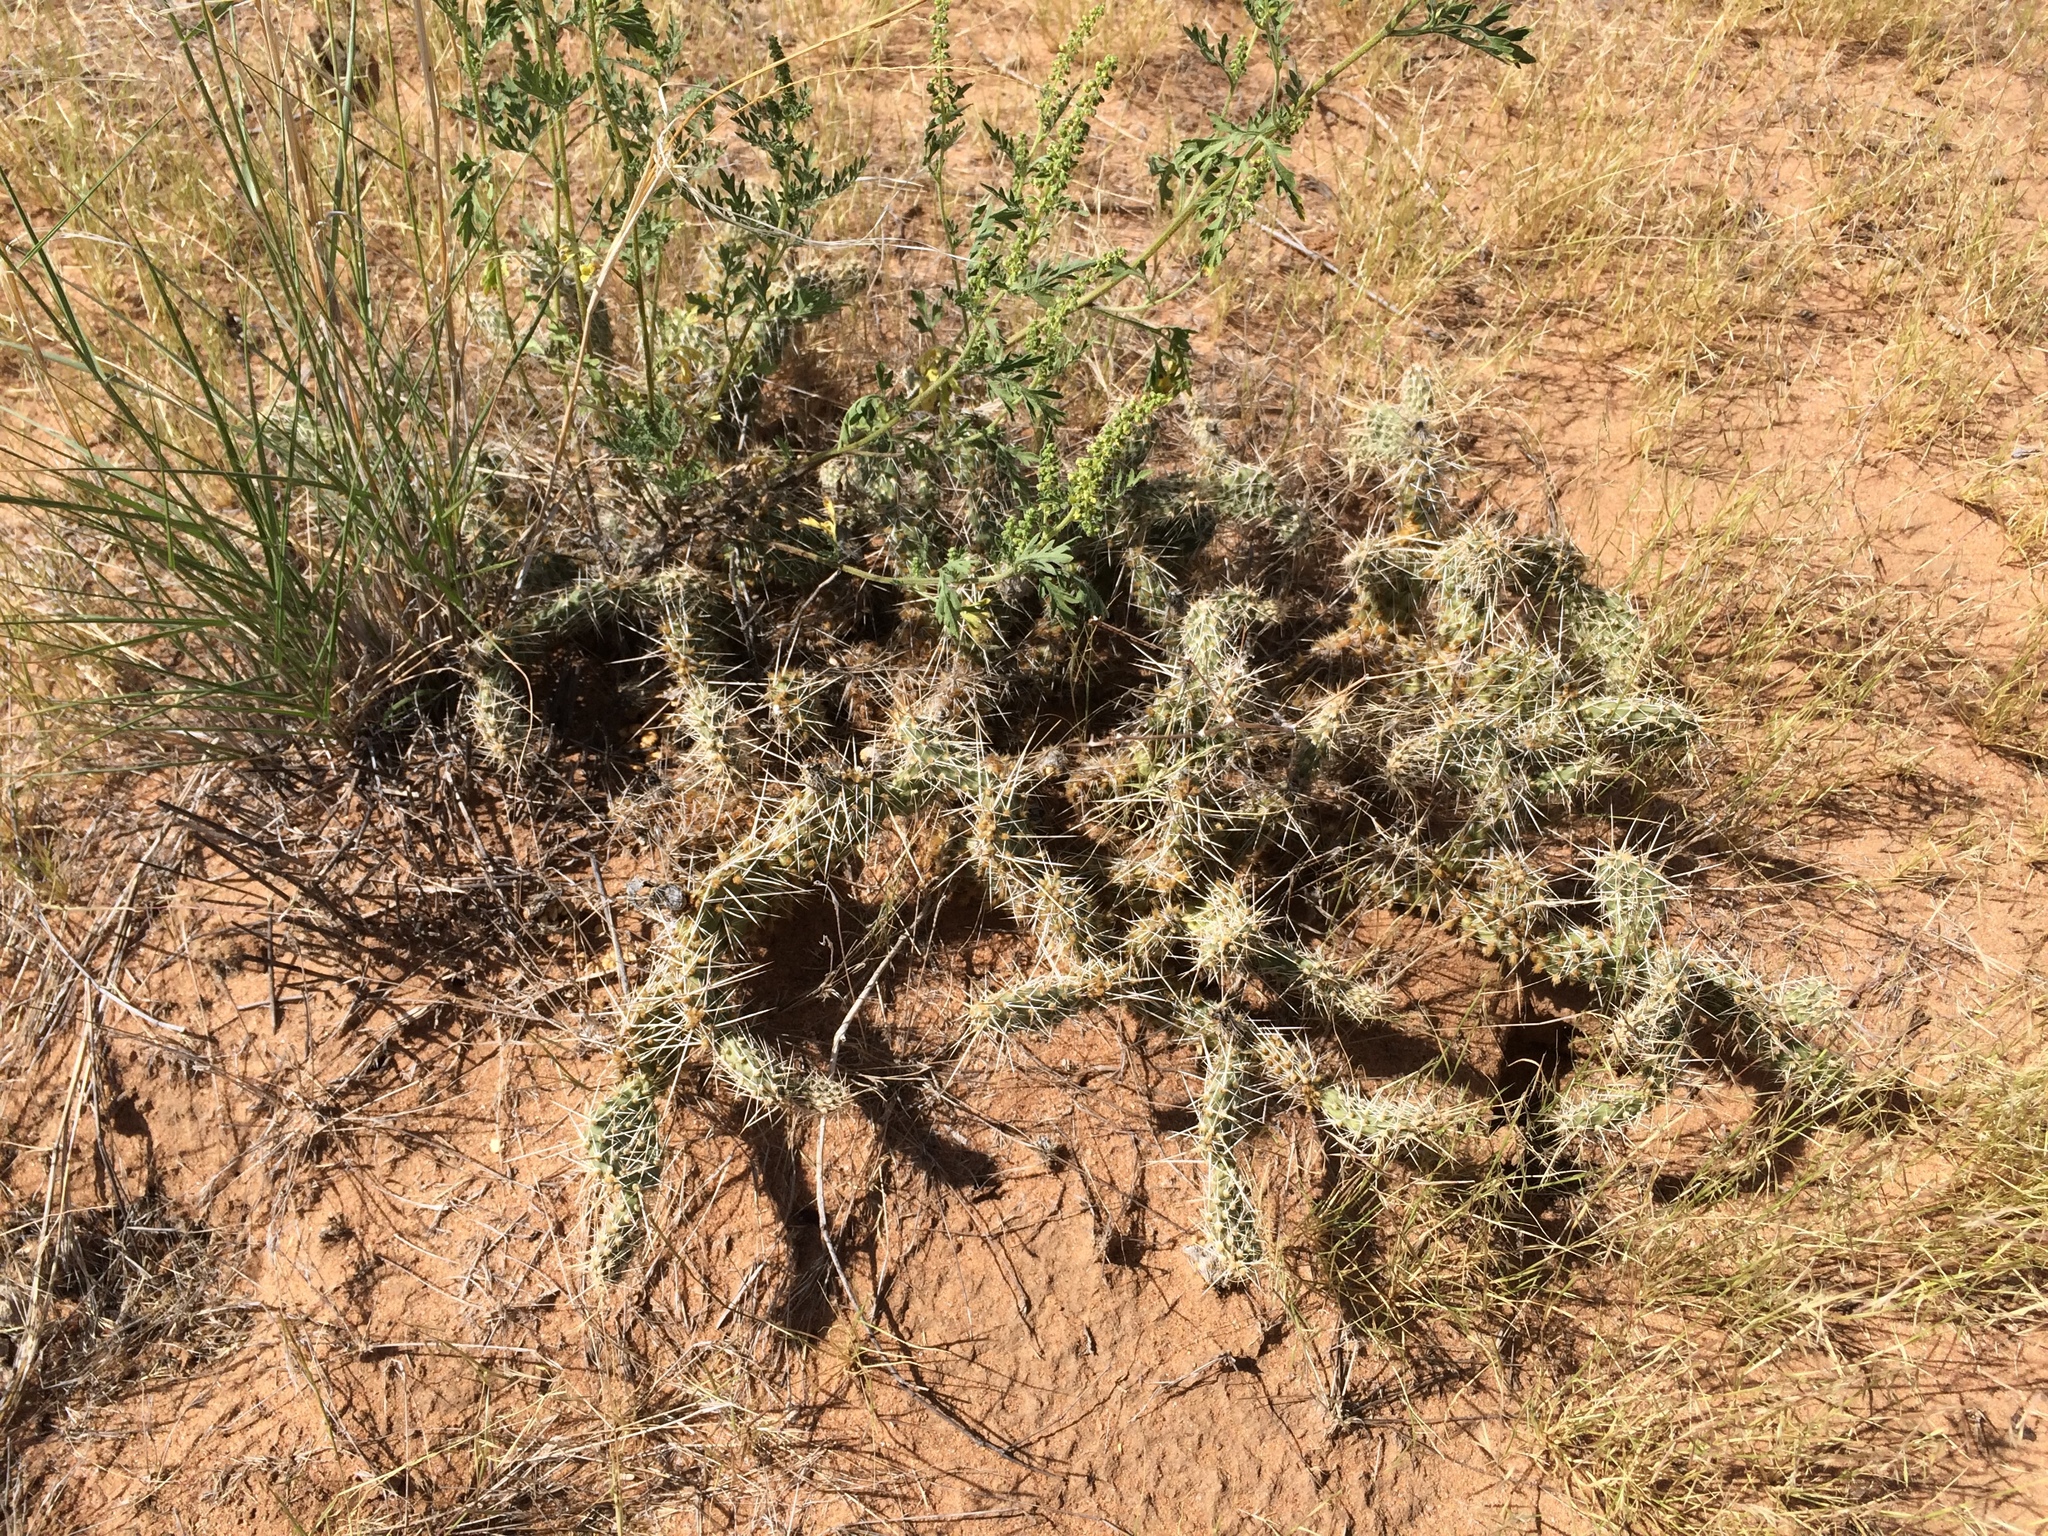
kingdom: Plantae
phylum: Tracheophyta
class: Magnoliopsida
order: Caryophyllales
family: Cactaceae
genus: Opuntia
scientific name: Opuntia polyacantha
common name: Plains prickly-pear
